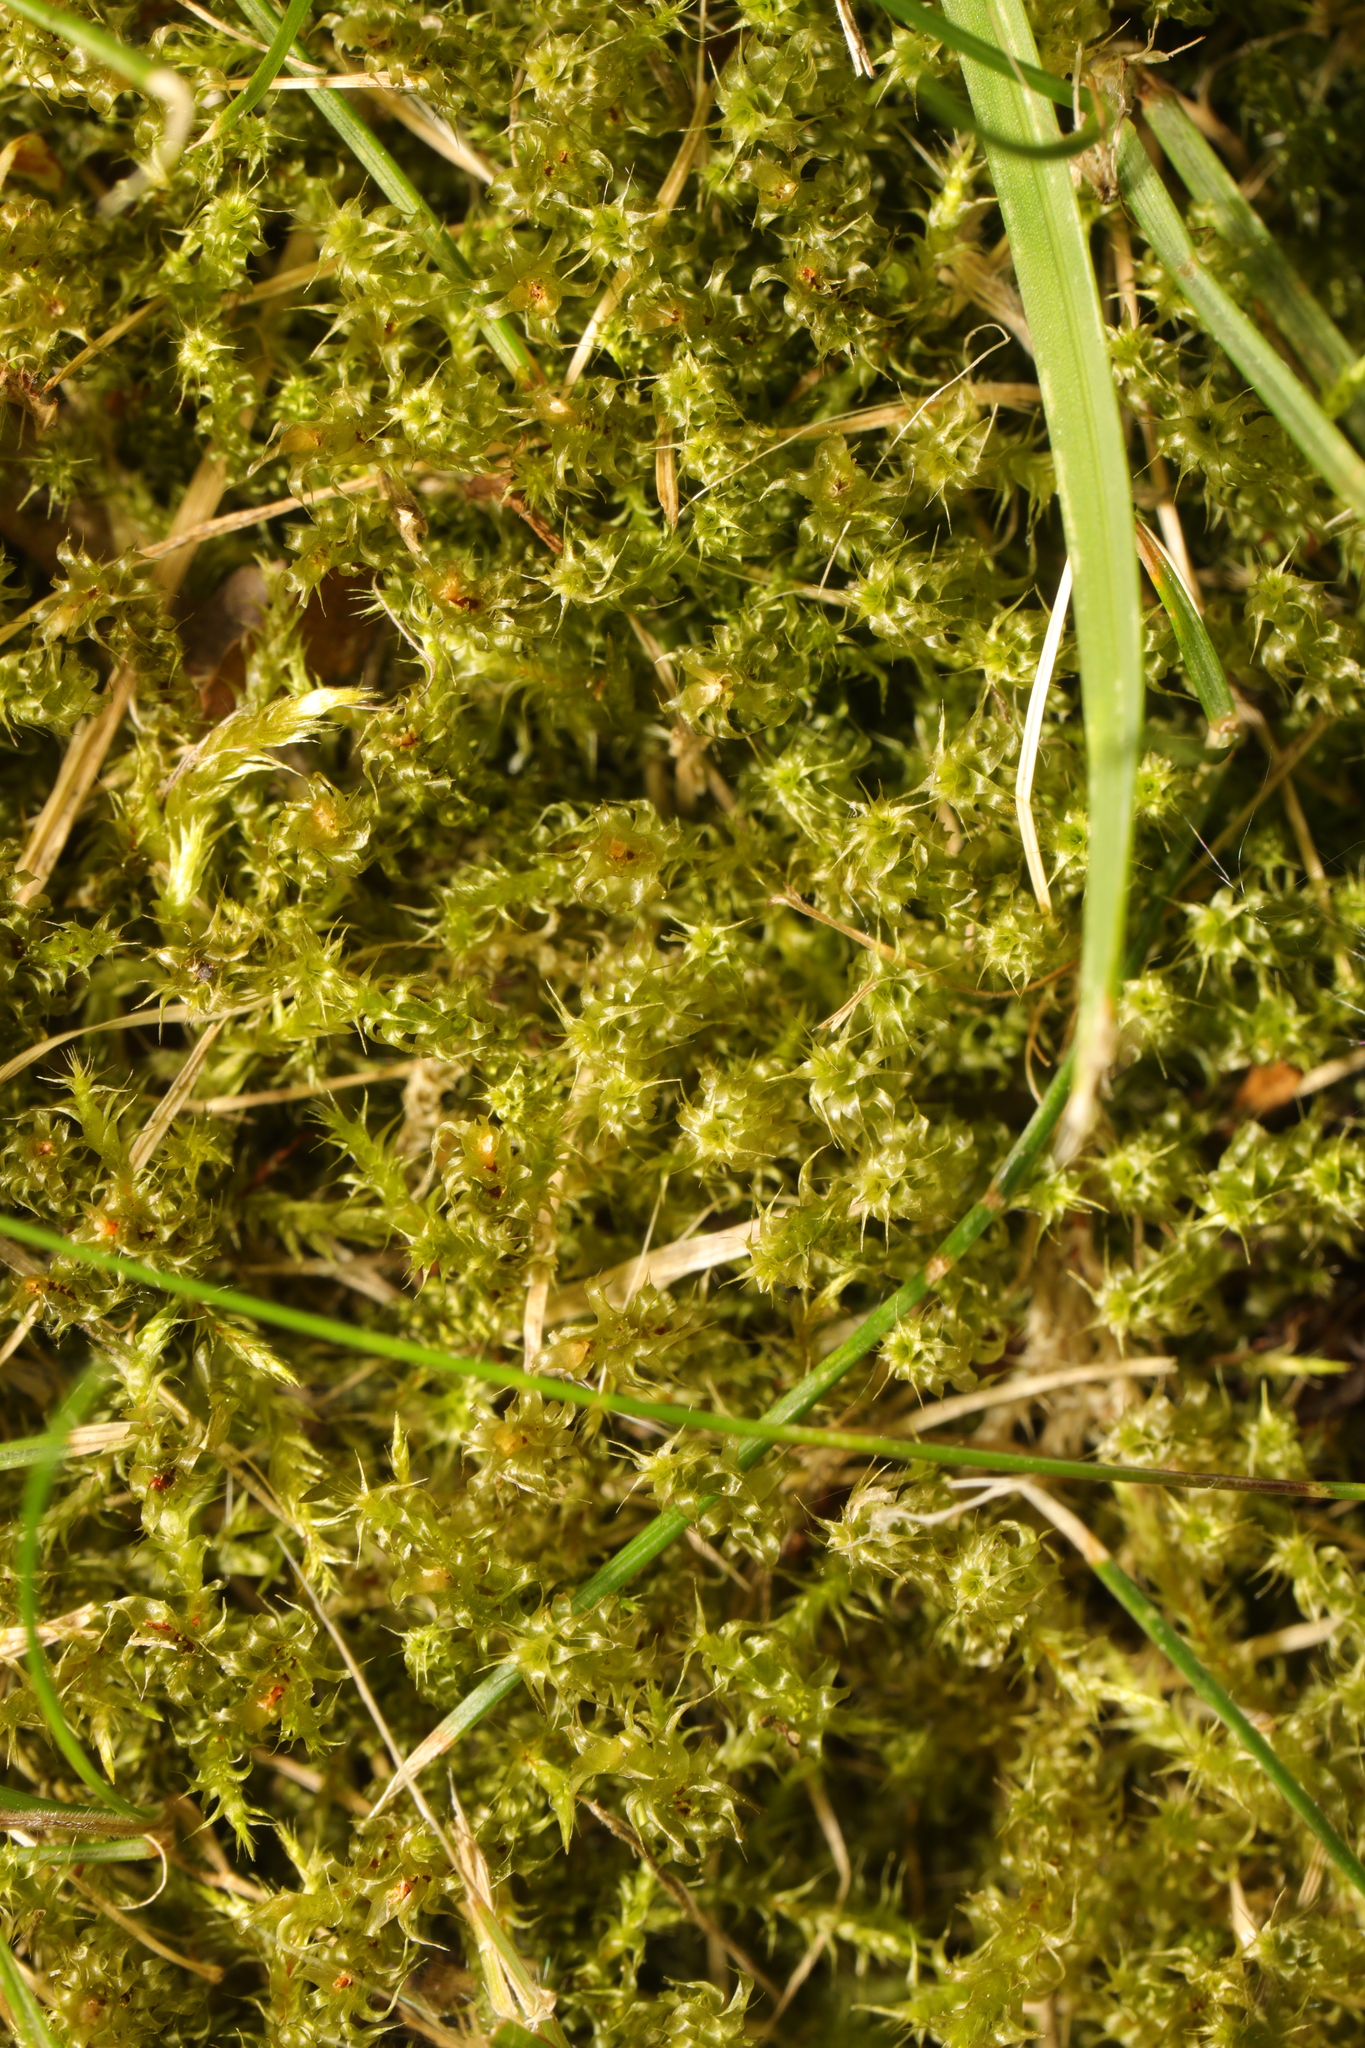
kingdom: Plantae
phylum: Bryophyta
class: Bryopsida
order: Hypnales
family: Hylocomiaceae
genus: Rhytidiadelphus
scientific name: Rhytidiadelphus squarrosus
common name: Springy turf-moss
